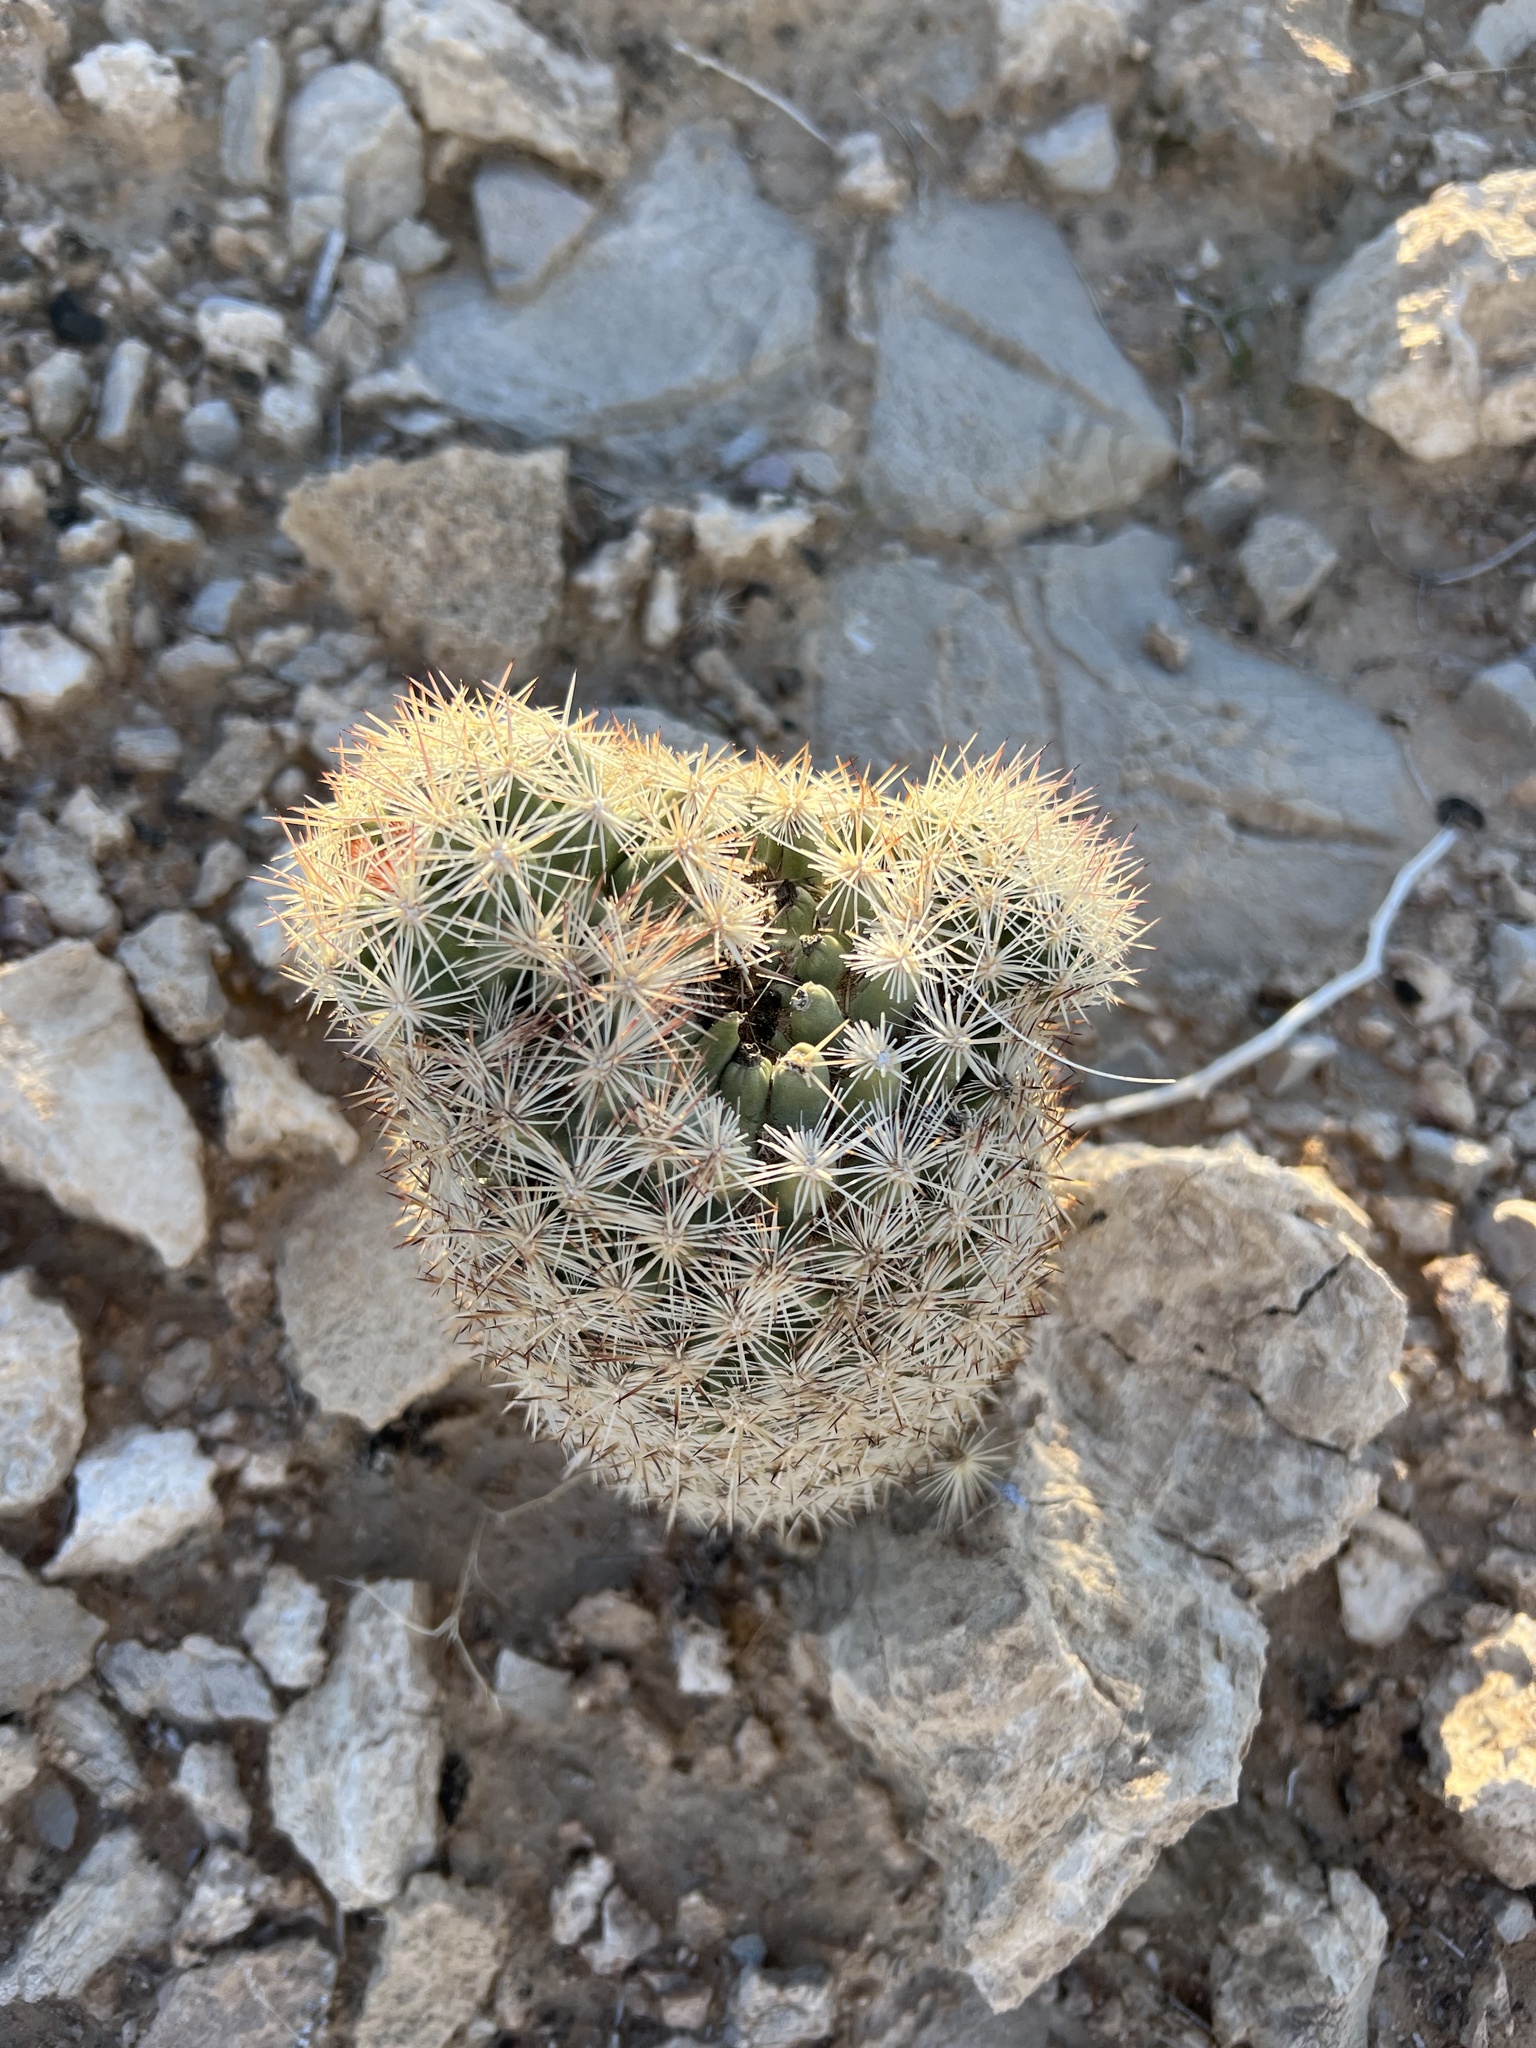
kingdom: Plantae
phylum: Tracheophyta
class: Magnoliopsida
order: Caryophyllales
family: Cactaceae
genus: Pelecyphora
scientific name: Pelecyphora dasyacantha
